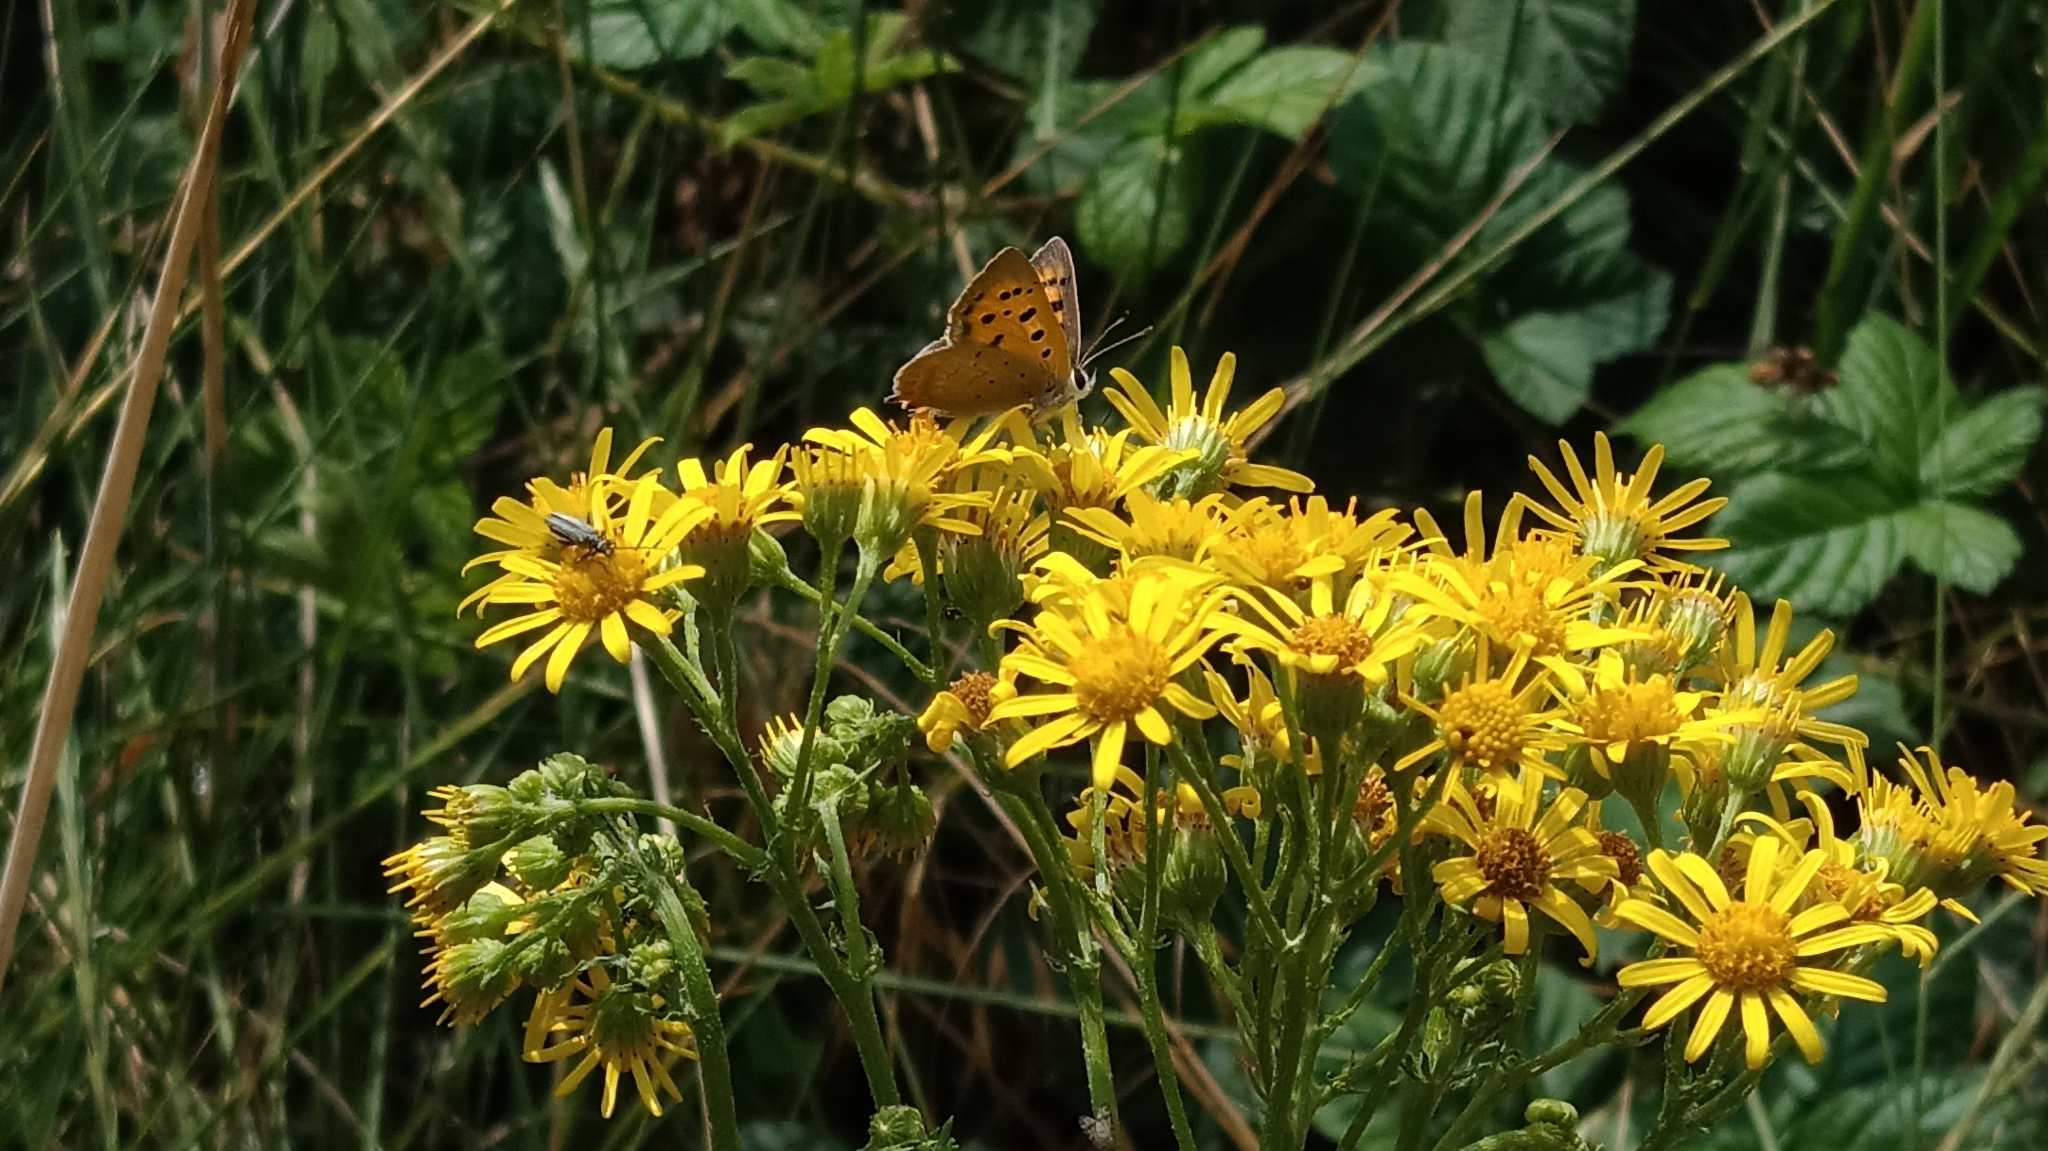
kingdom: Animalia
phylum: Arthropoda
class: Insecta
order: Lepidoptera
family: Lycaenidae
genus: Lycaena
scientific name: Lycaena phlaeas
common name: Small copper
